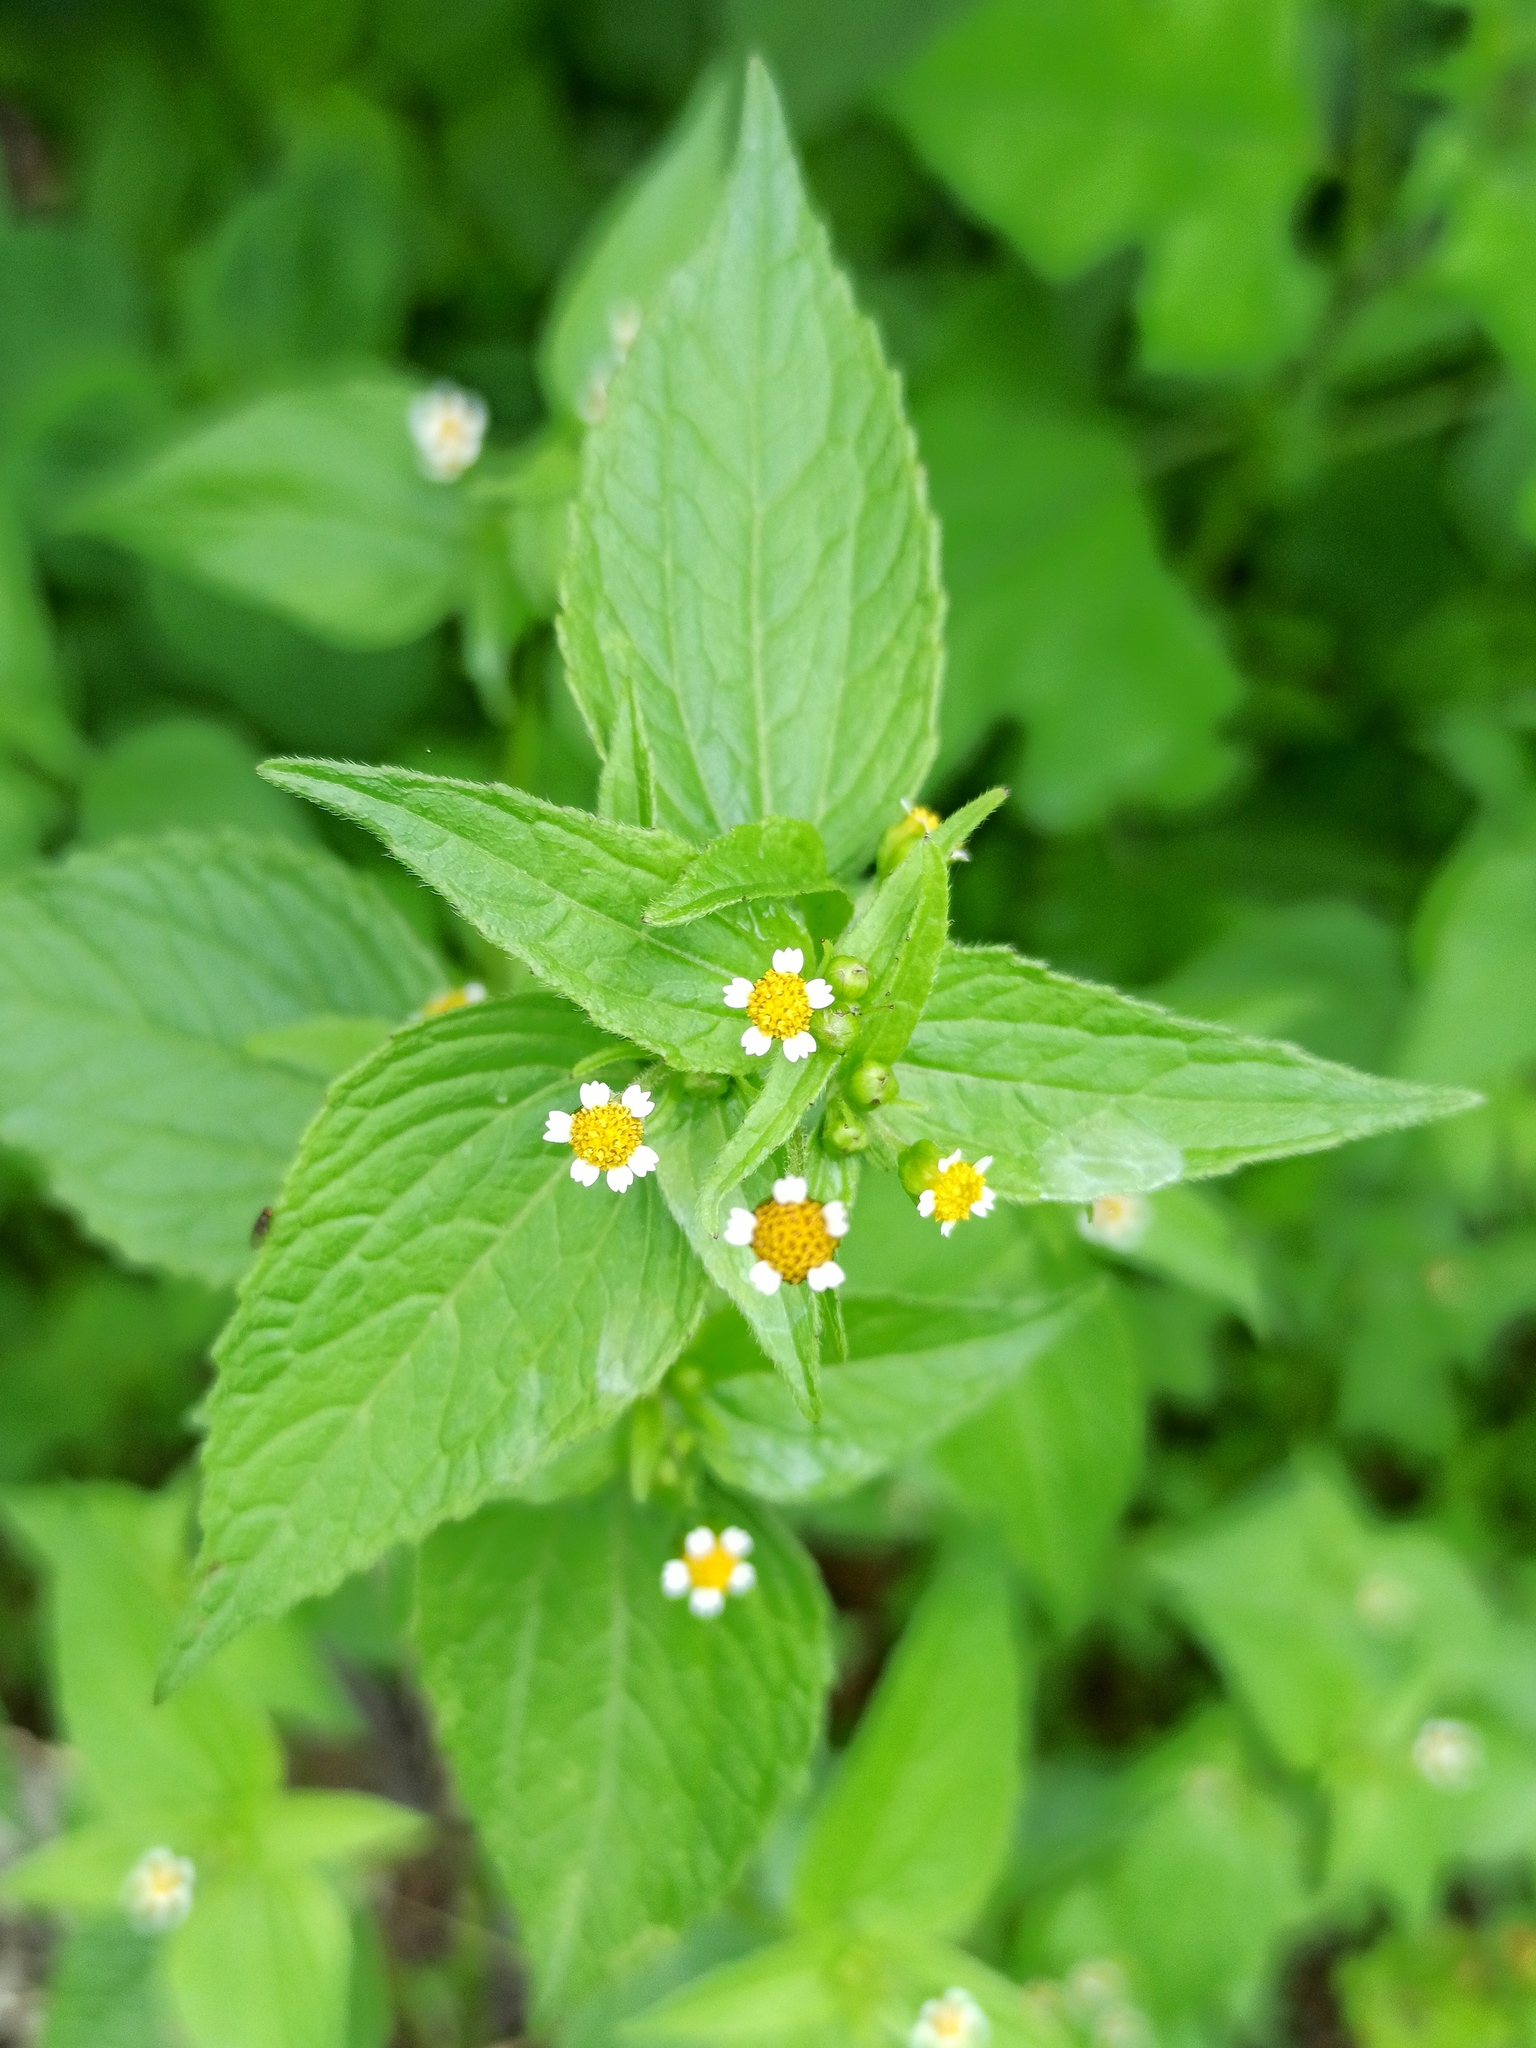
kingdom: Plantae
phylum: Tracheophyta
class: Magnoliopsida
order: Asterales
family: Asteraceae
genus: Galinsoga
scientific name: Galinsoga parviflora
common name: Gallant soldier
